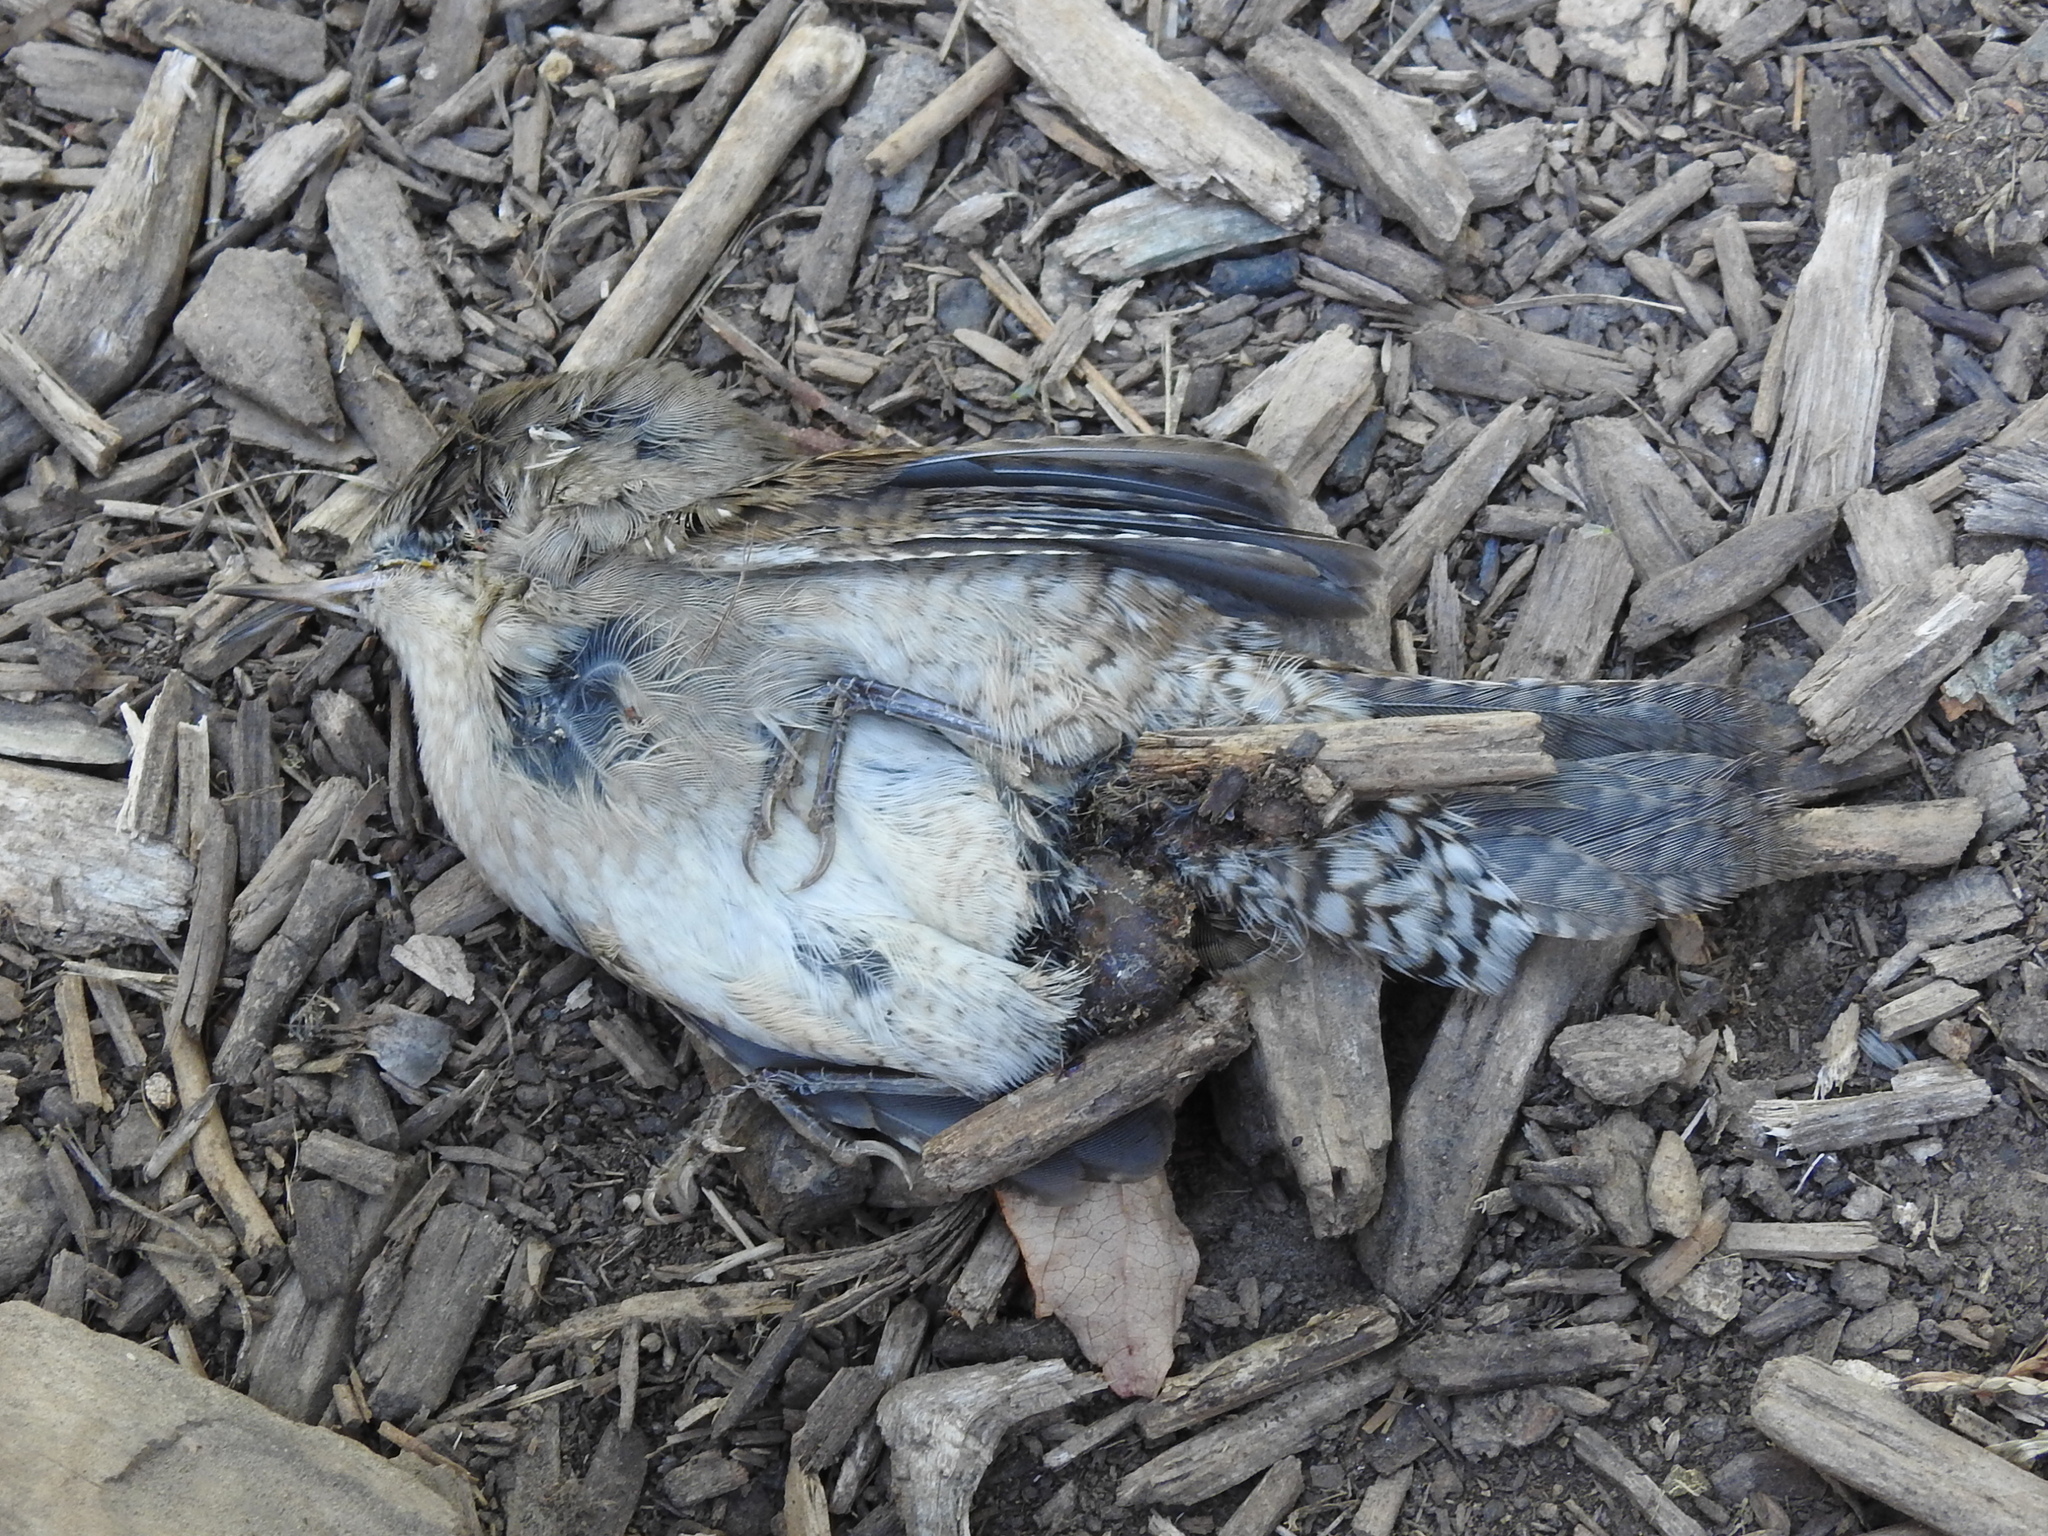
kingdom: Animalia
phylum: Chordata
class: Aves
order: Passeriformes
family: Troglodytidae
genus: Troglodytes
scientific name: Troglodytes aedon
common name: House wren
